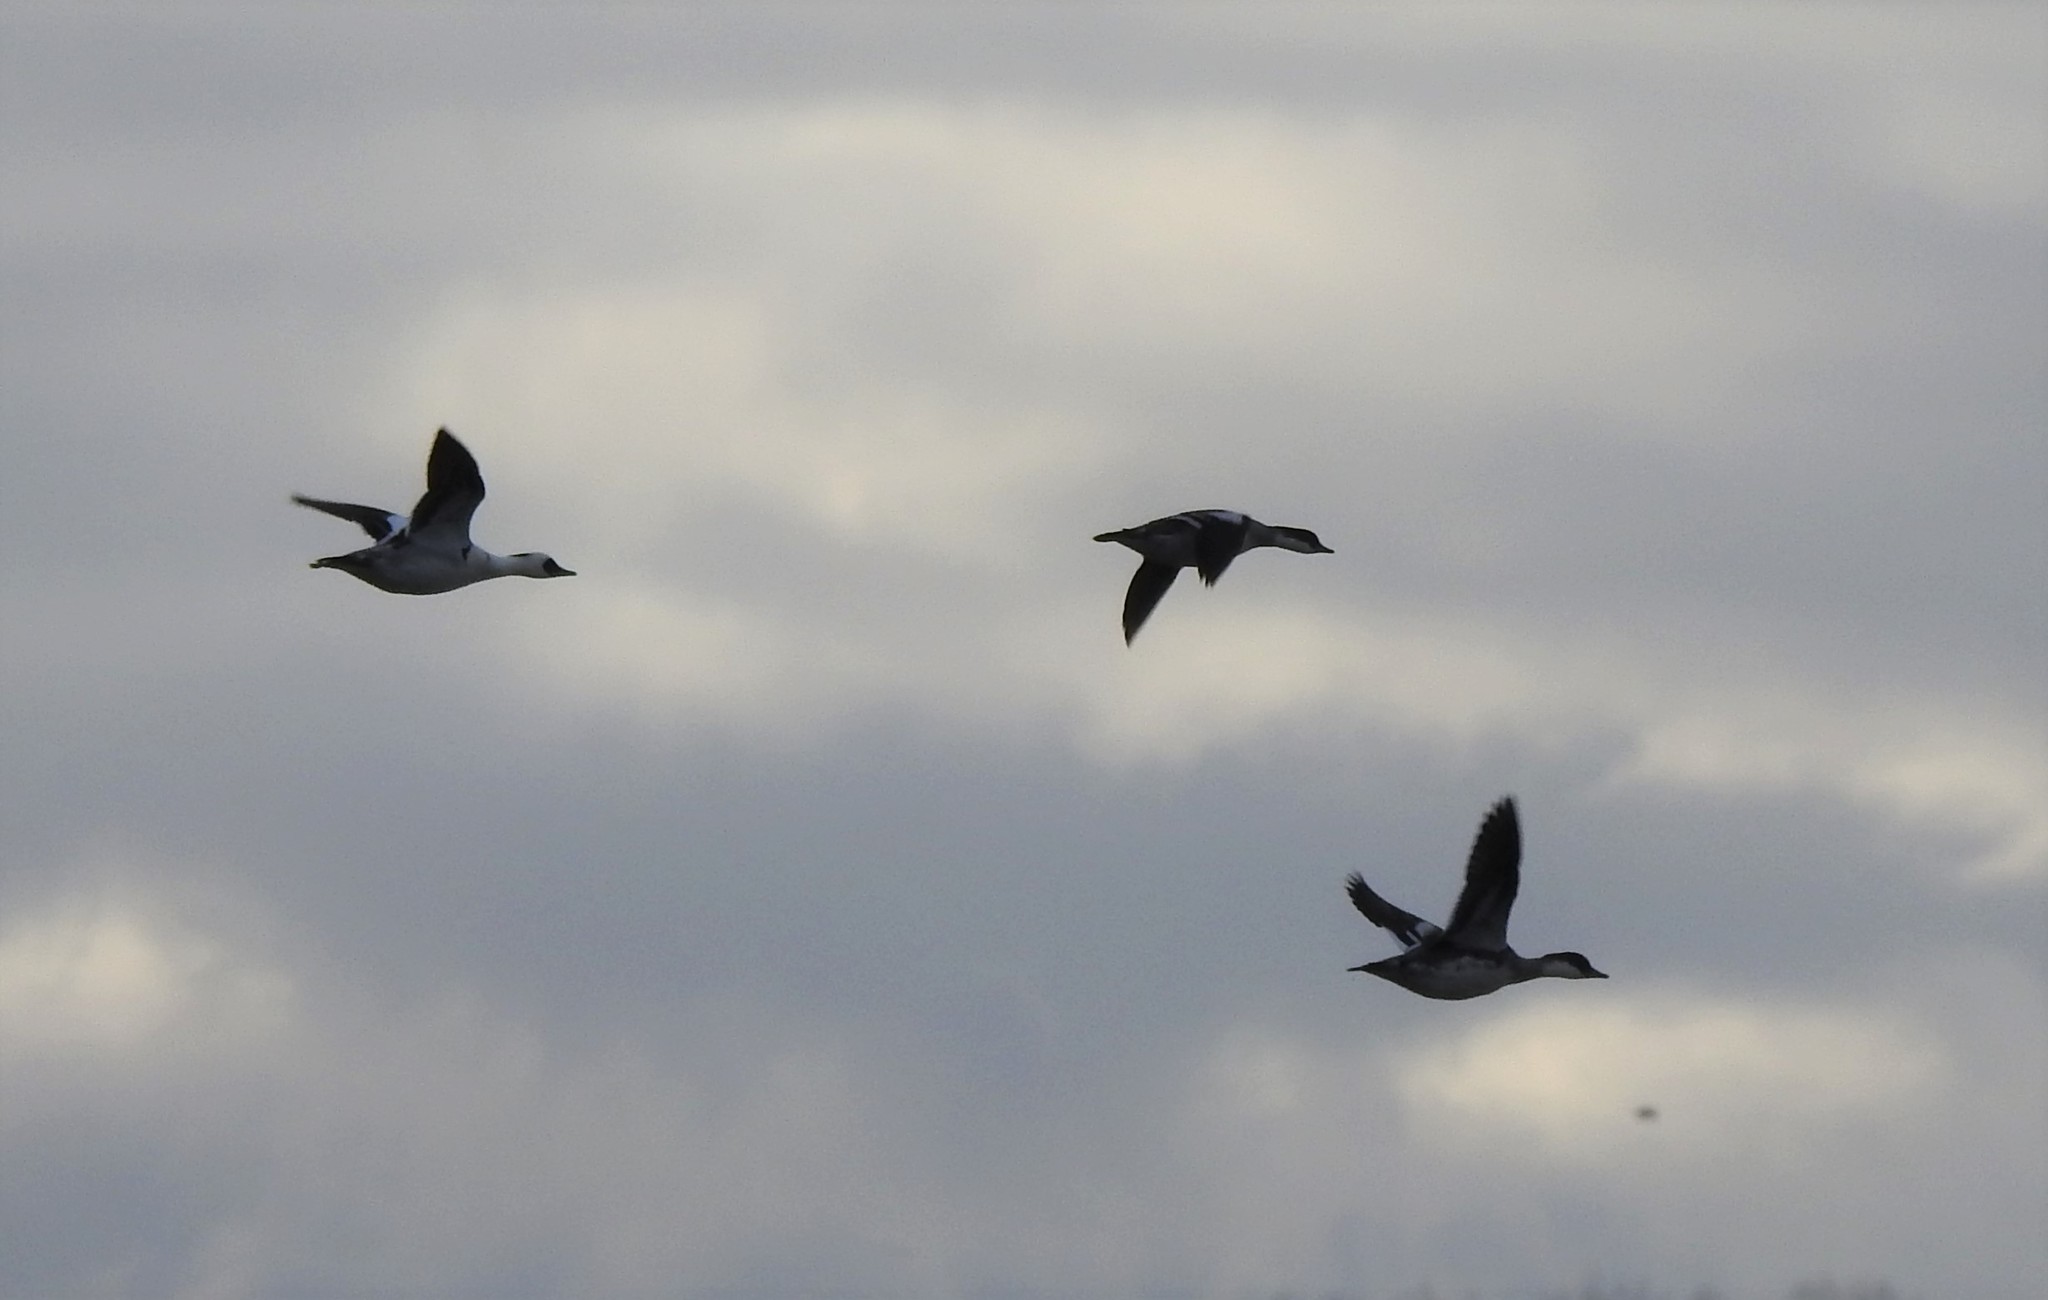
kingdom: Animalia
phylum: Chordata
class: Aves
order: Anseriformes
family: Anatidae
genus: Mergellus
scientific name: Mergellus albellus
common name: Smew
